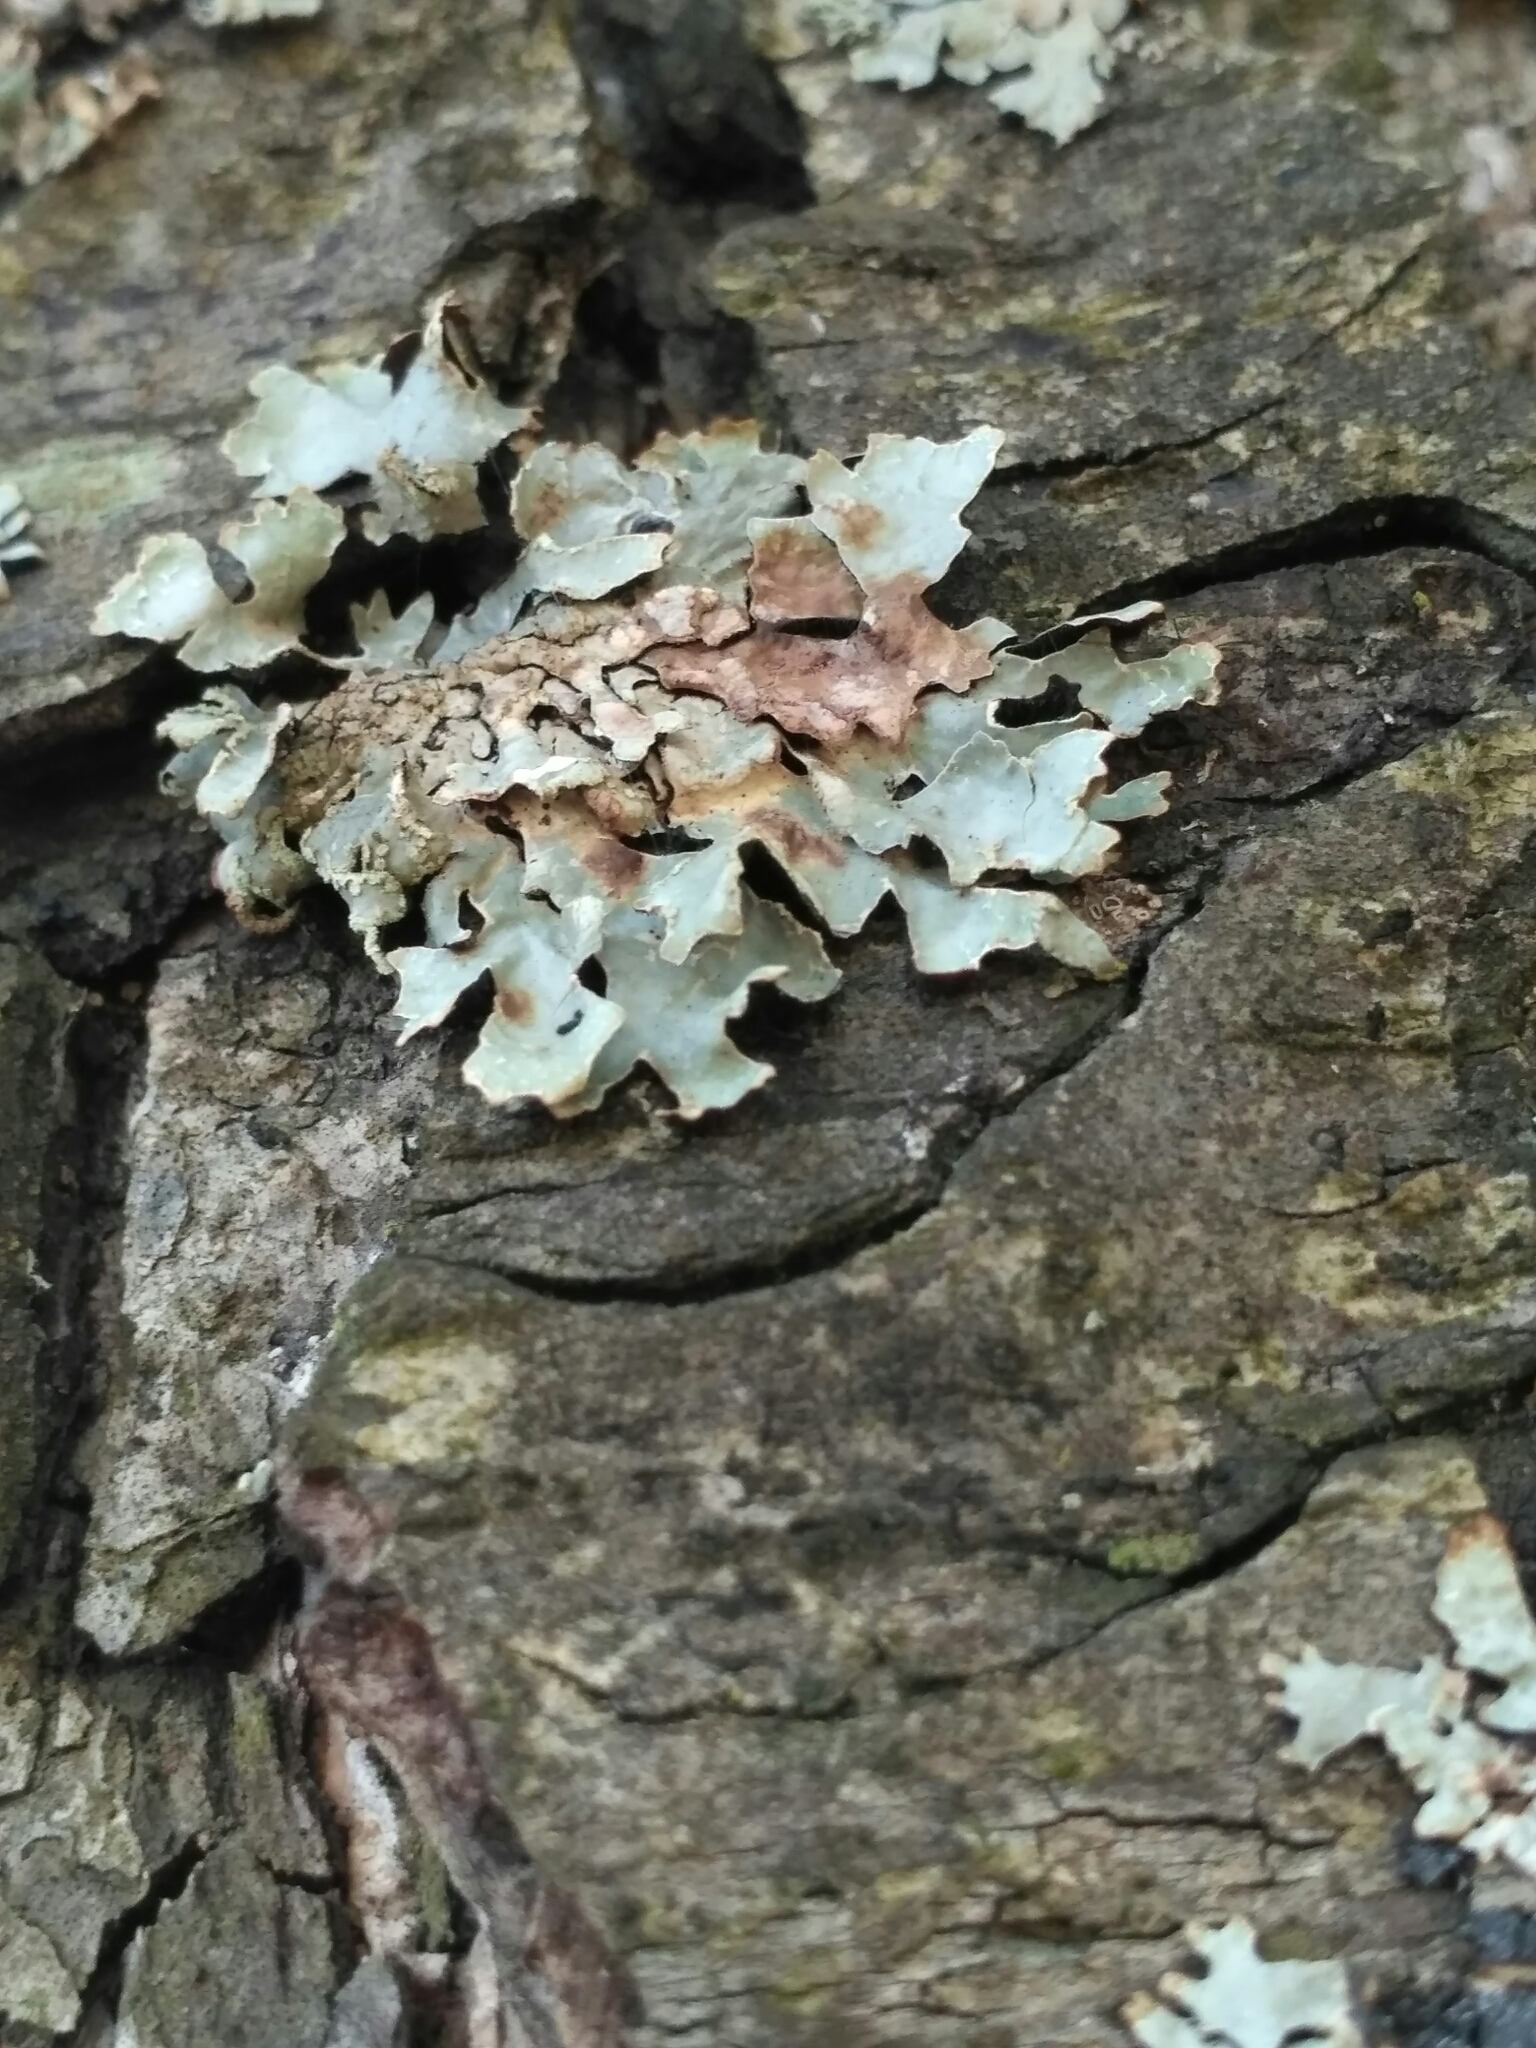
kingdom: Fungi
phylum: Ascomycota
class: Lecanoromycetes
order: Lecanorales
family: Parmeliaceae
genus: Parmelia
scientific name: Parmelia sulcata
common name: Netted shield lichen
